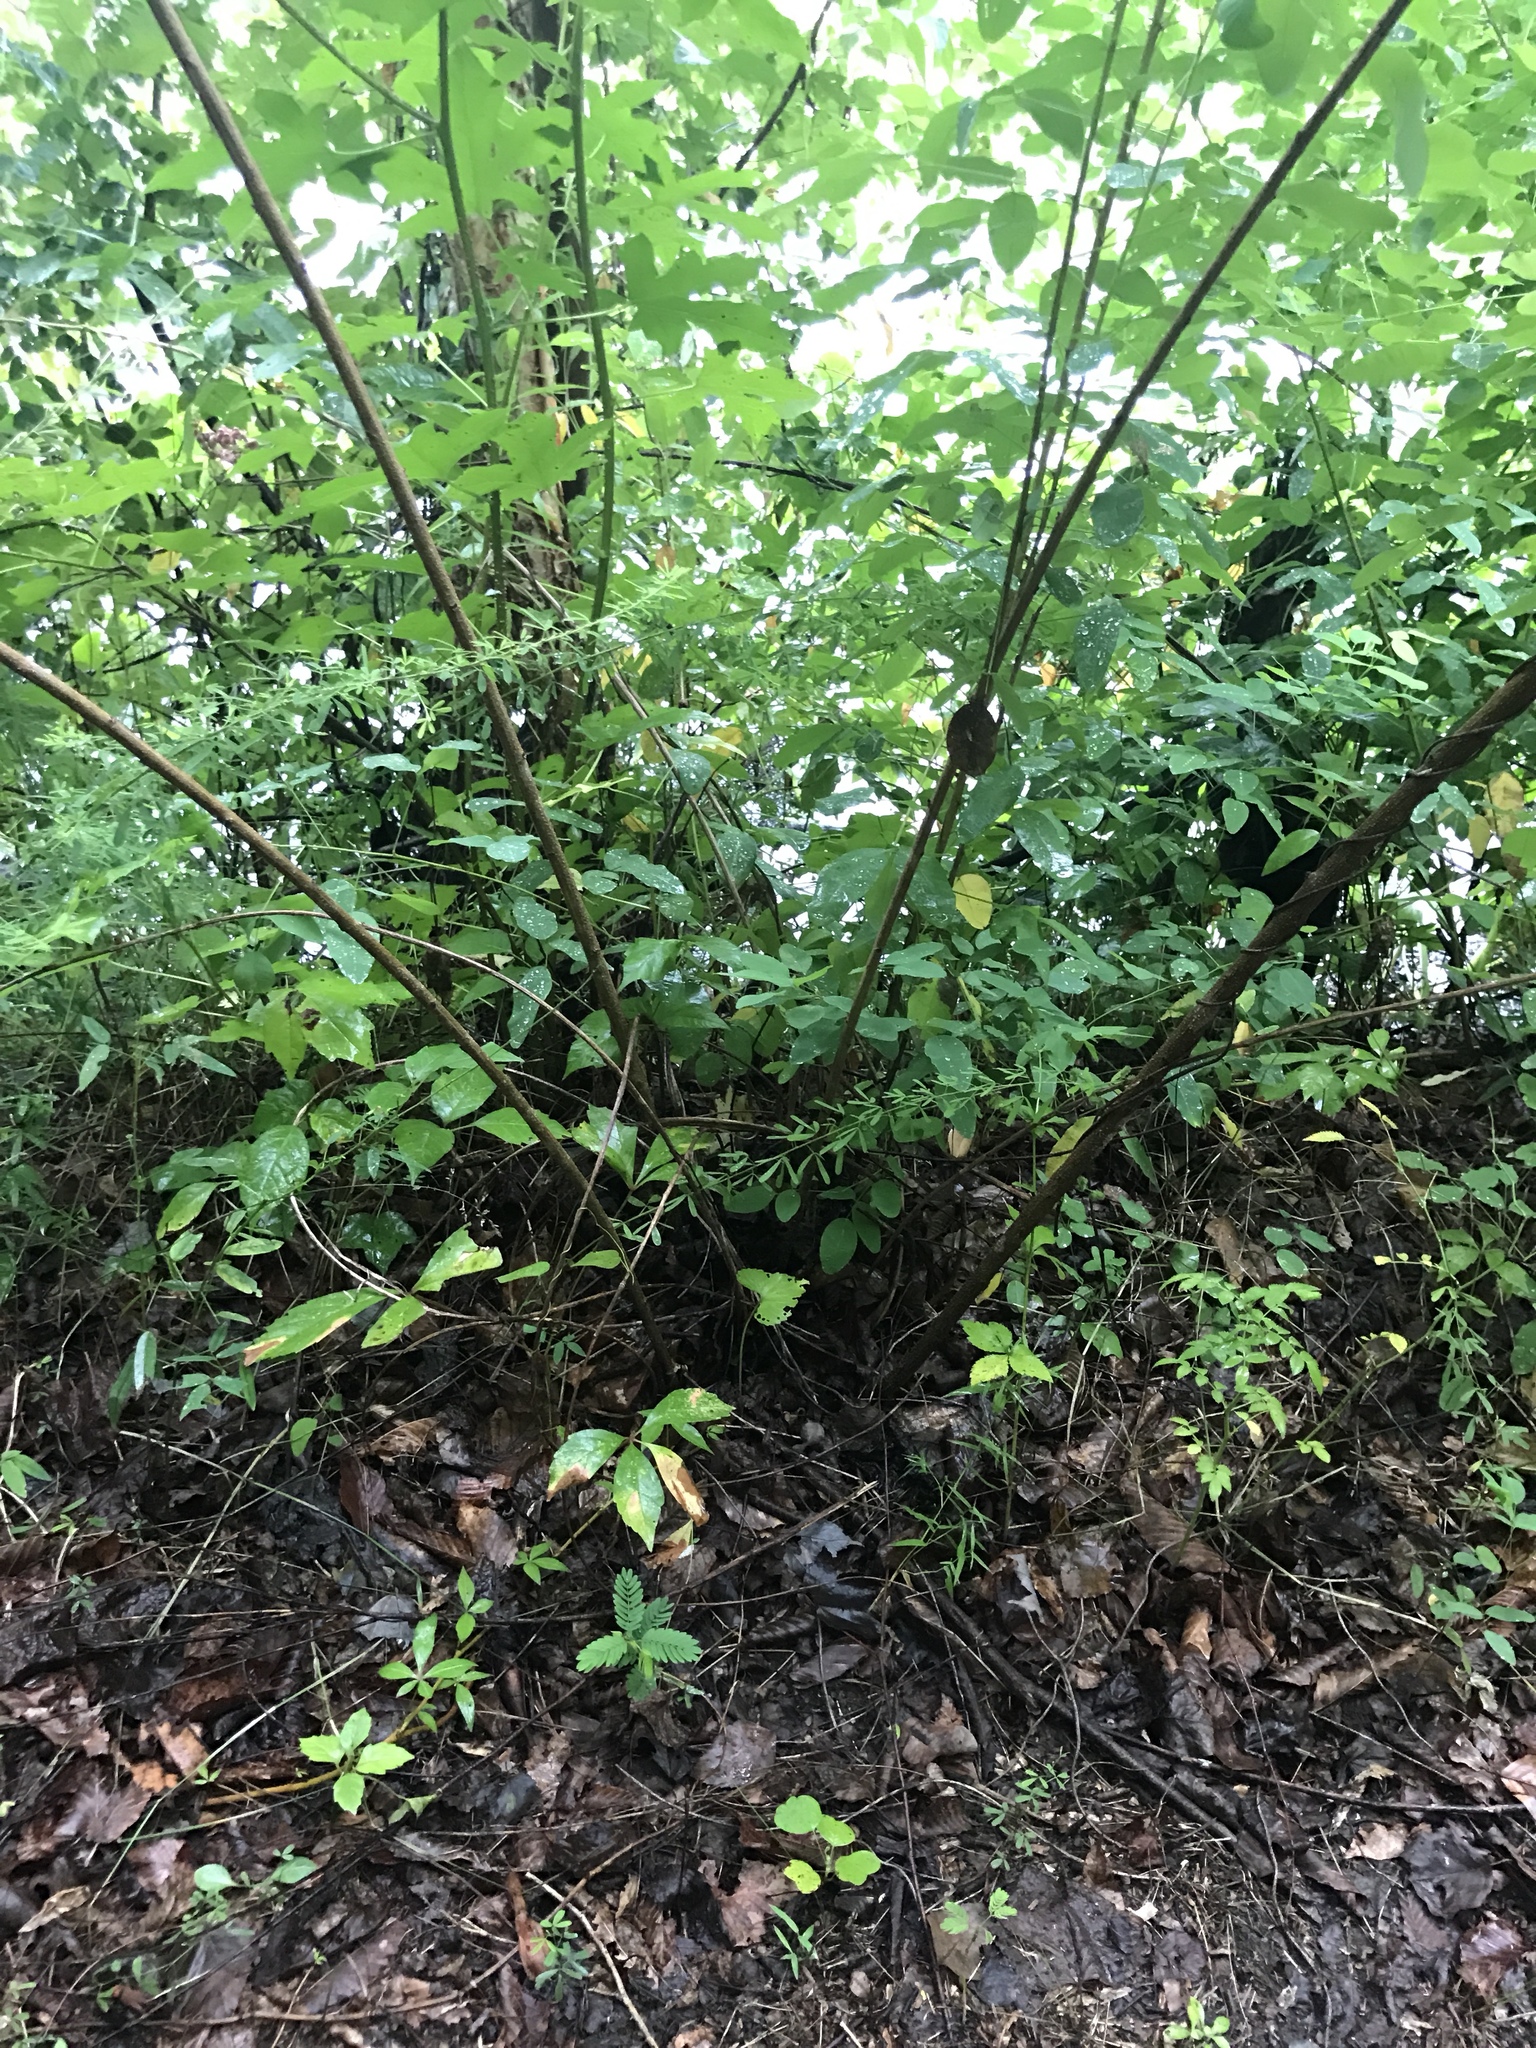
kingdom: Plantae
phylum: Tracheophyta
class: Magnoliopsida
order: Fabales
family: Fabaceae
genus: Lespedeza
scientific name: Lespedeza bicolor
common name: Shrub lespedeza
